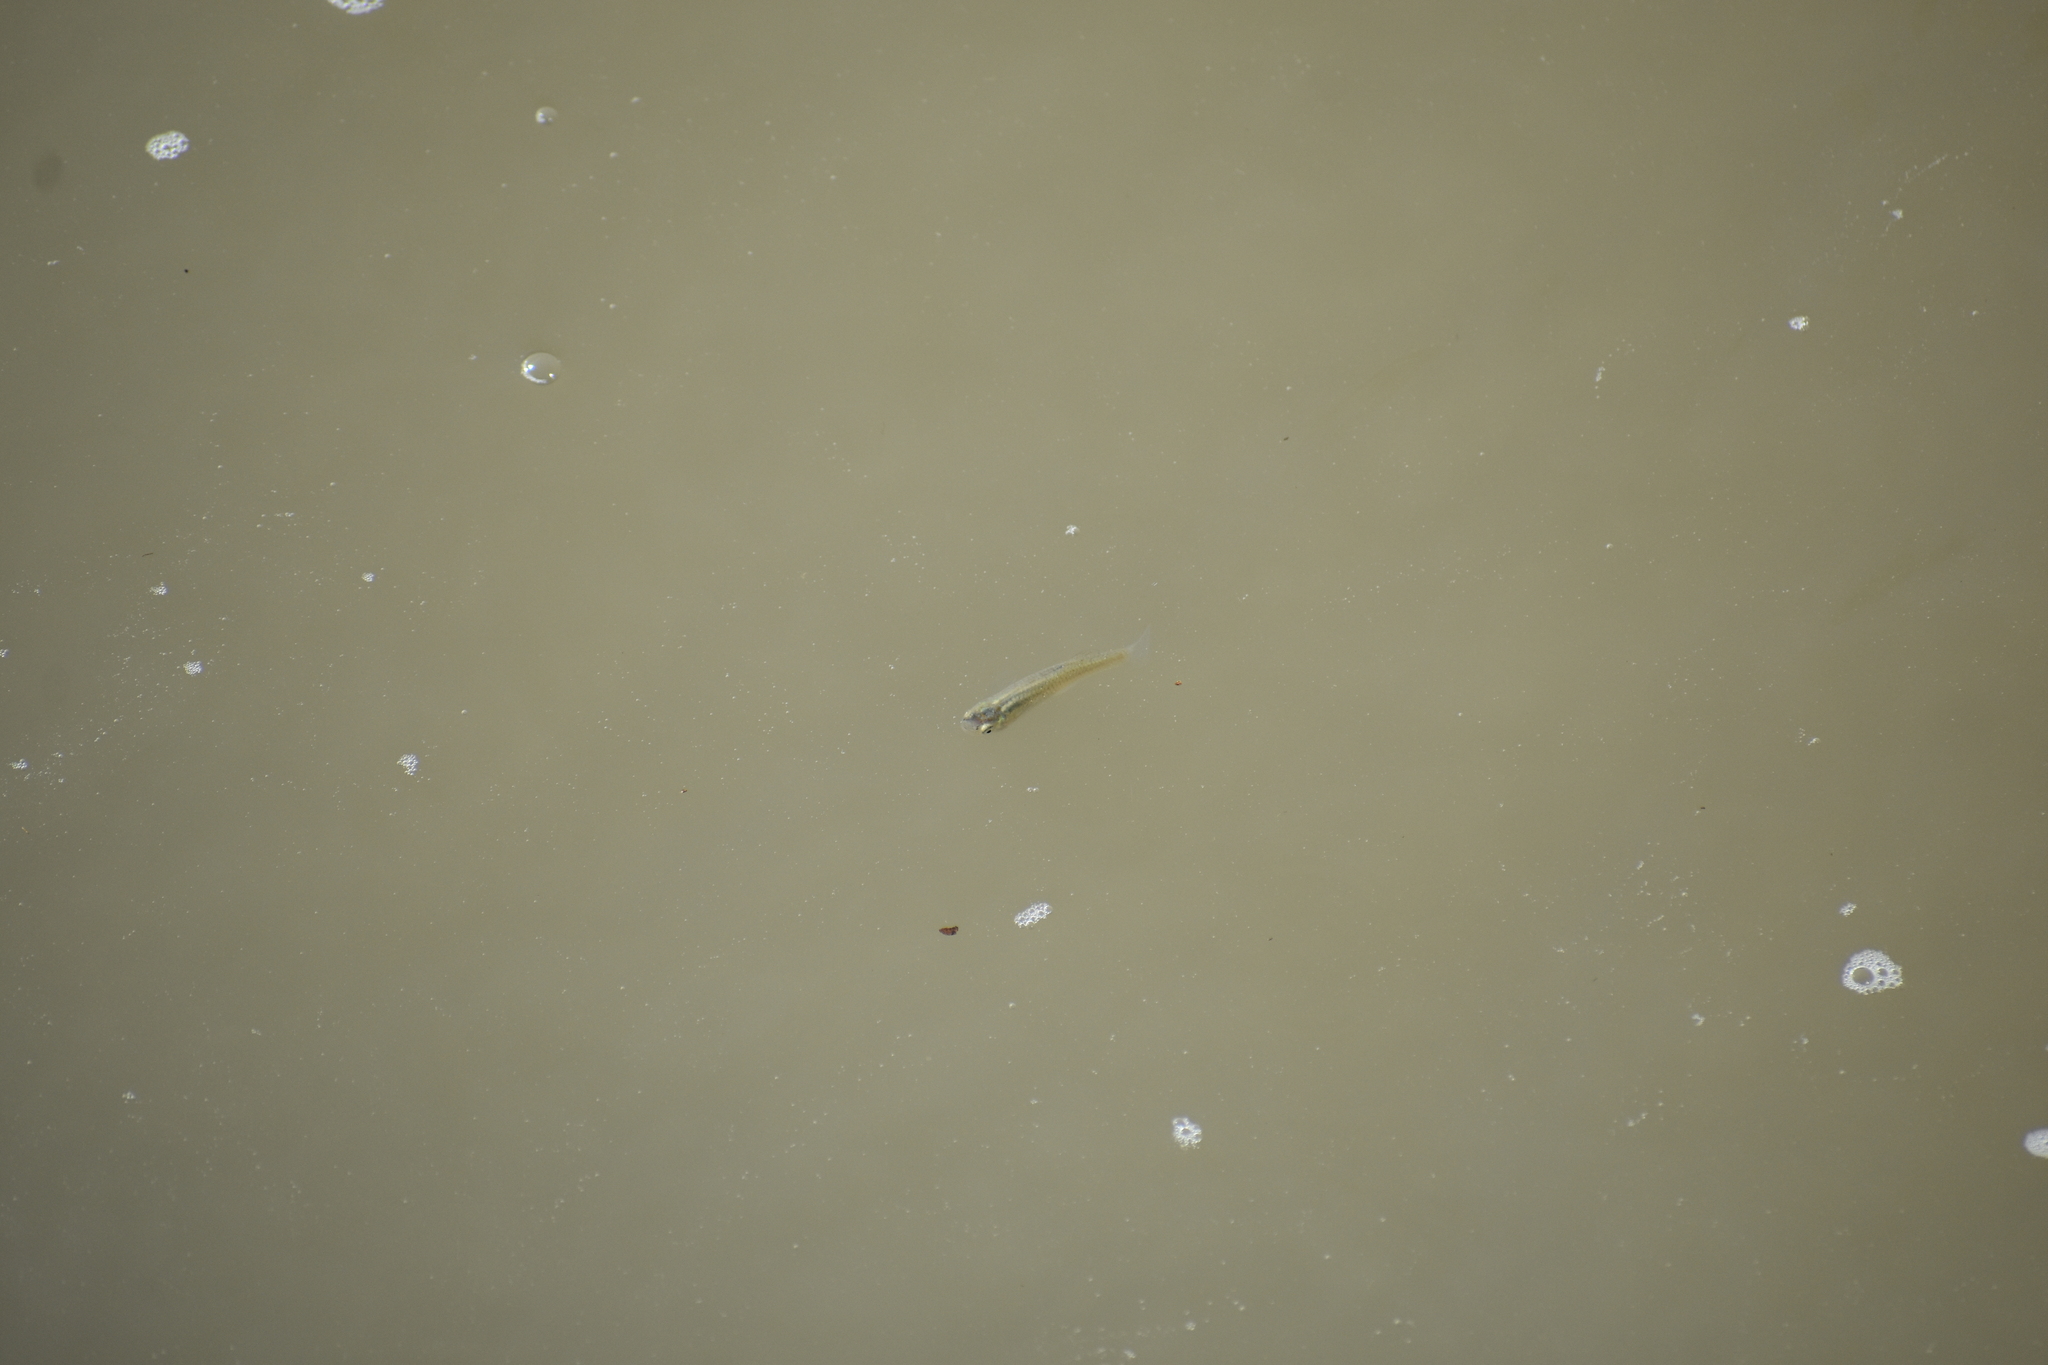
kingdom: Animalia
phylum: Chordata
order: Cyprinodontiformes
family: Poeciliidae
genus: Gambusia
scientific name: Gambusia affinis
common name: Mosquitofish
